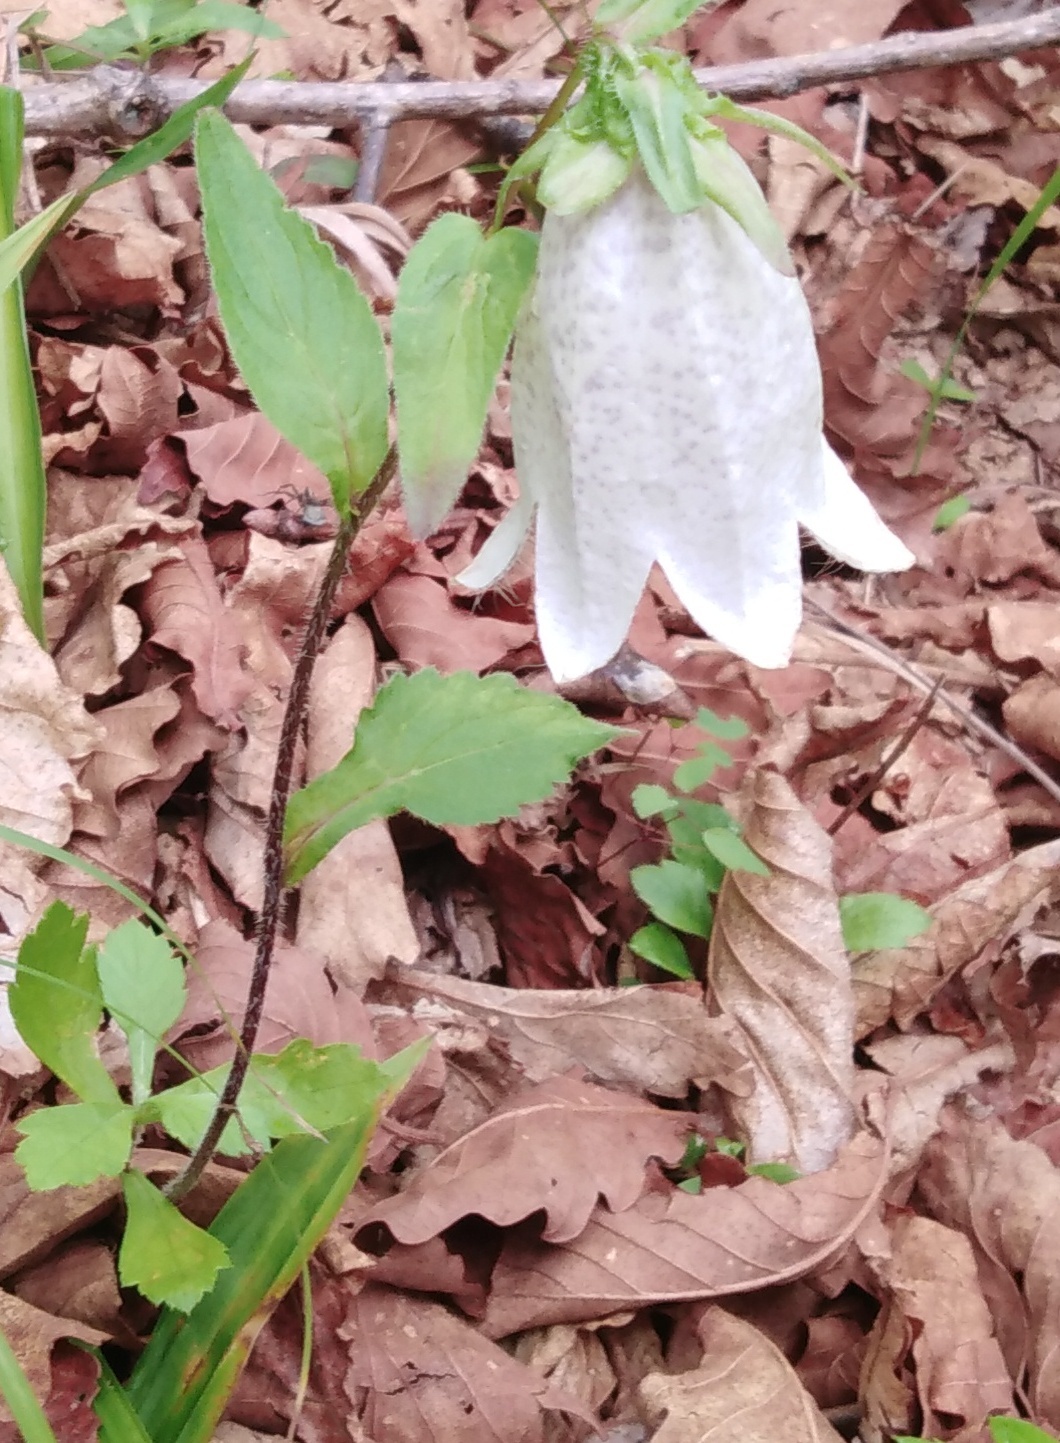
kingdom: Plantae
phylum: Tracheophyta
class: Magnoliopsida
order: Asterales
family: Campanulaceae
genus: Campanula
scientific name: Campanula punctata
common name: Spotted bellflower
